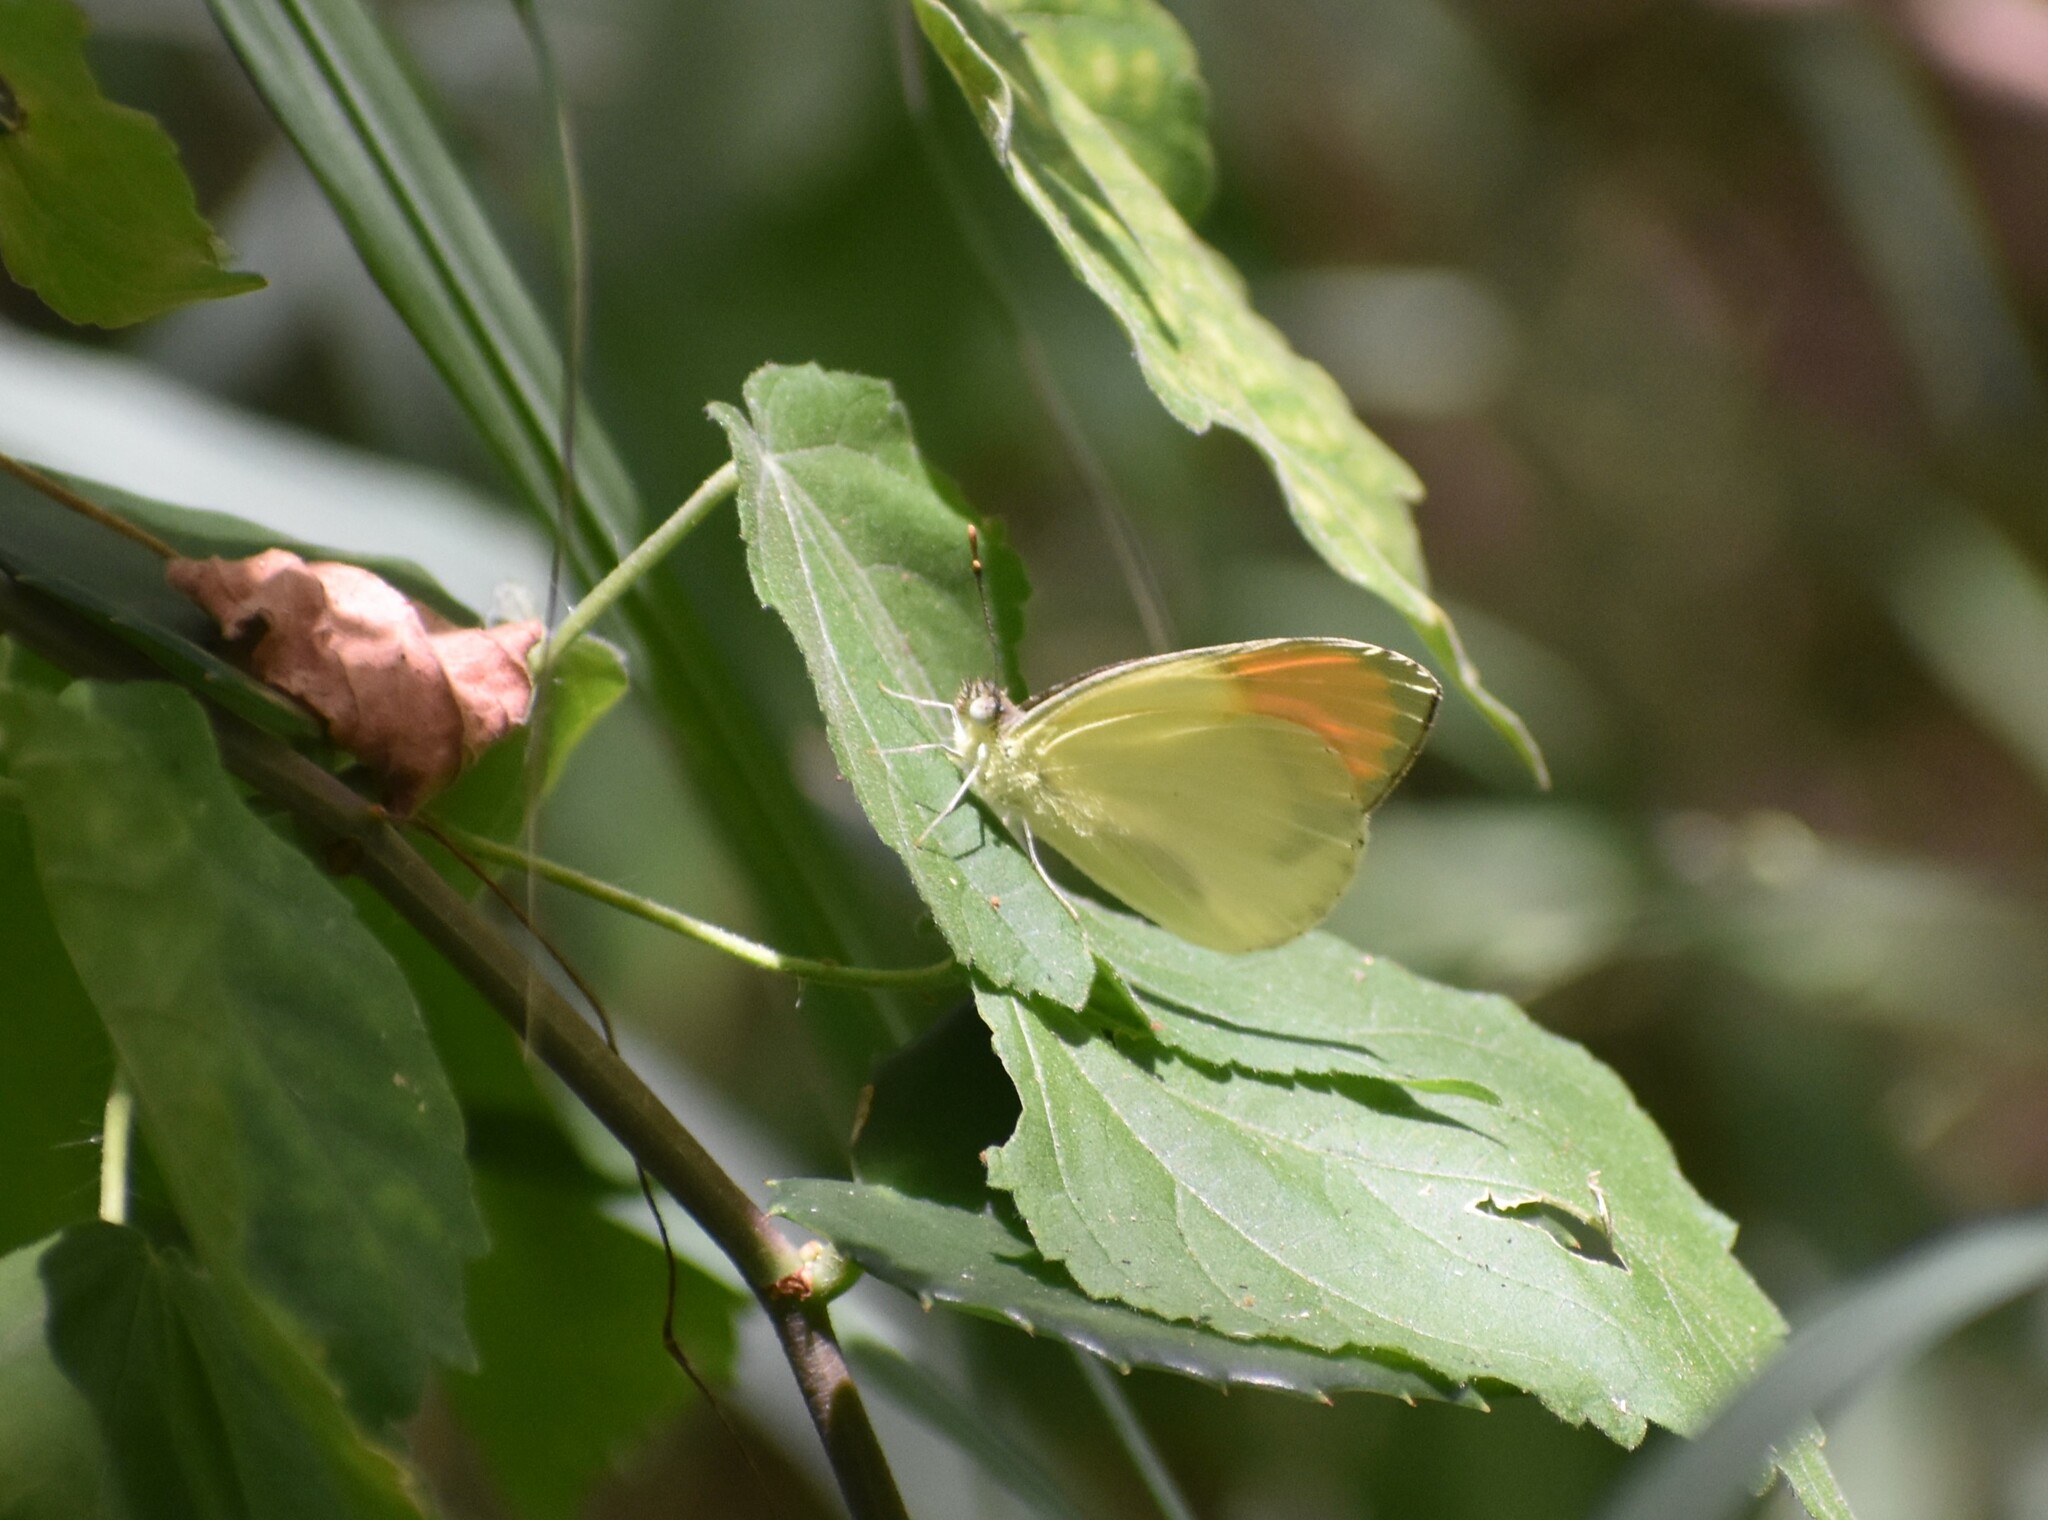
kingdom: Animalia
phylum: Arthropoda
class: Insecta
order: Lepidoptera
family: Pieridae
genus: Colotis
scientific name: Colotis auxo
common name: Sulphur orange tip
